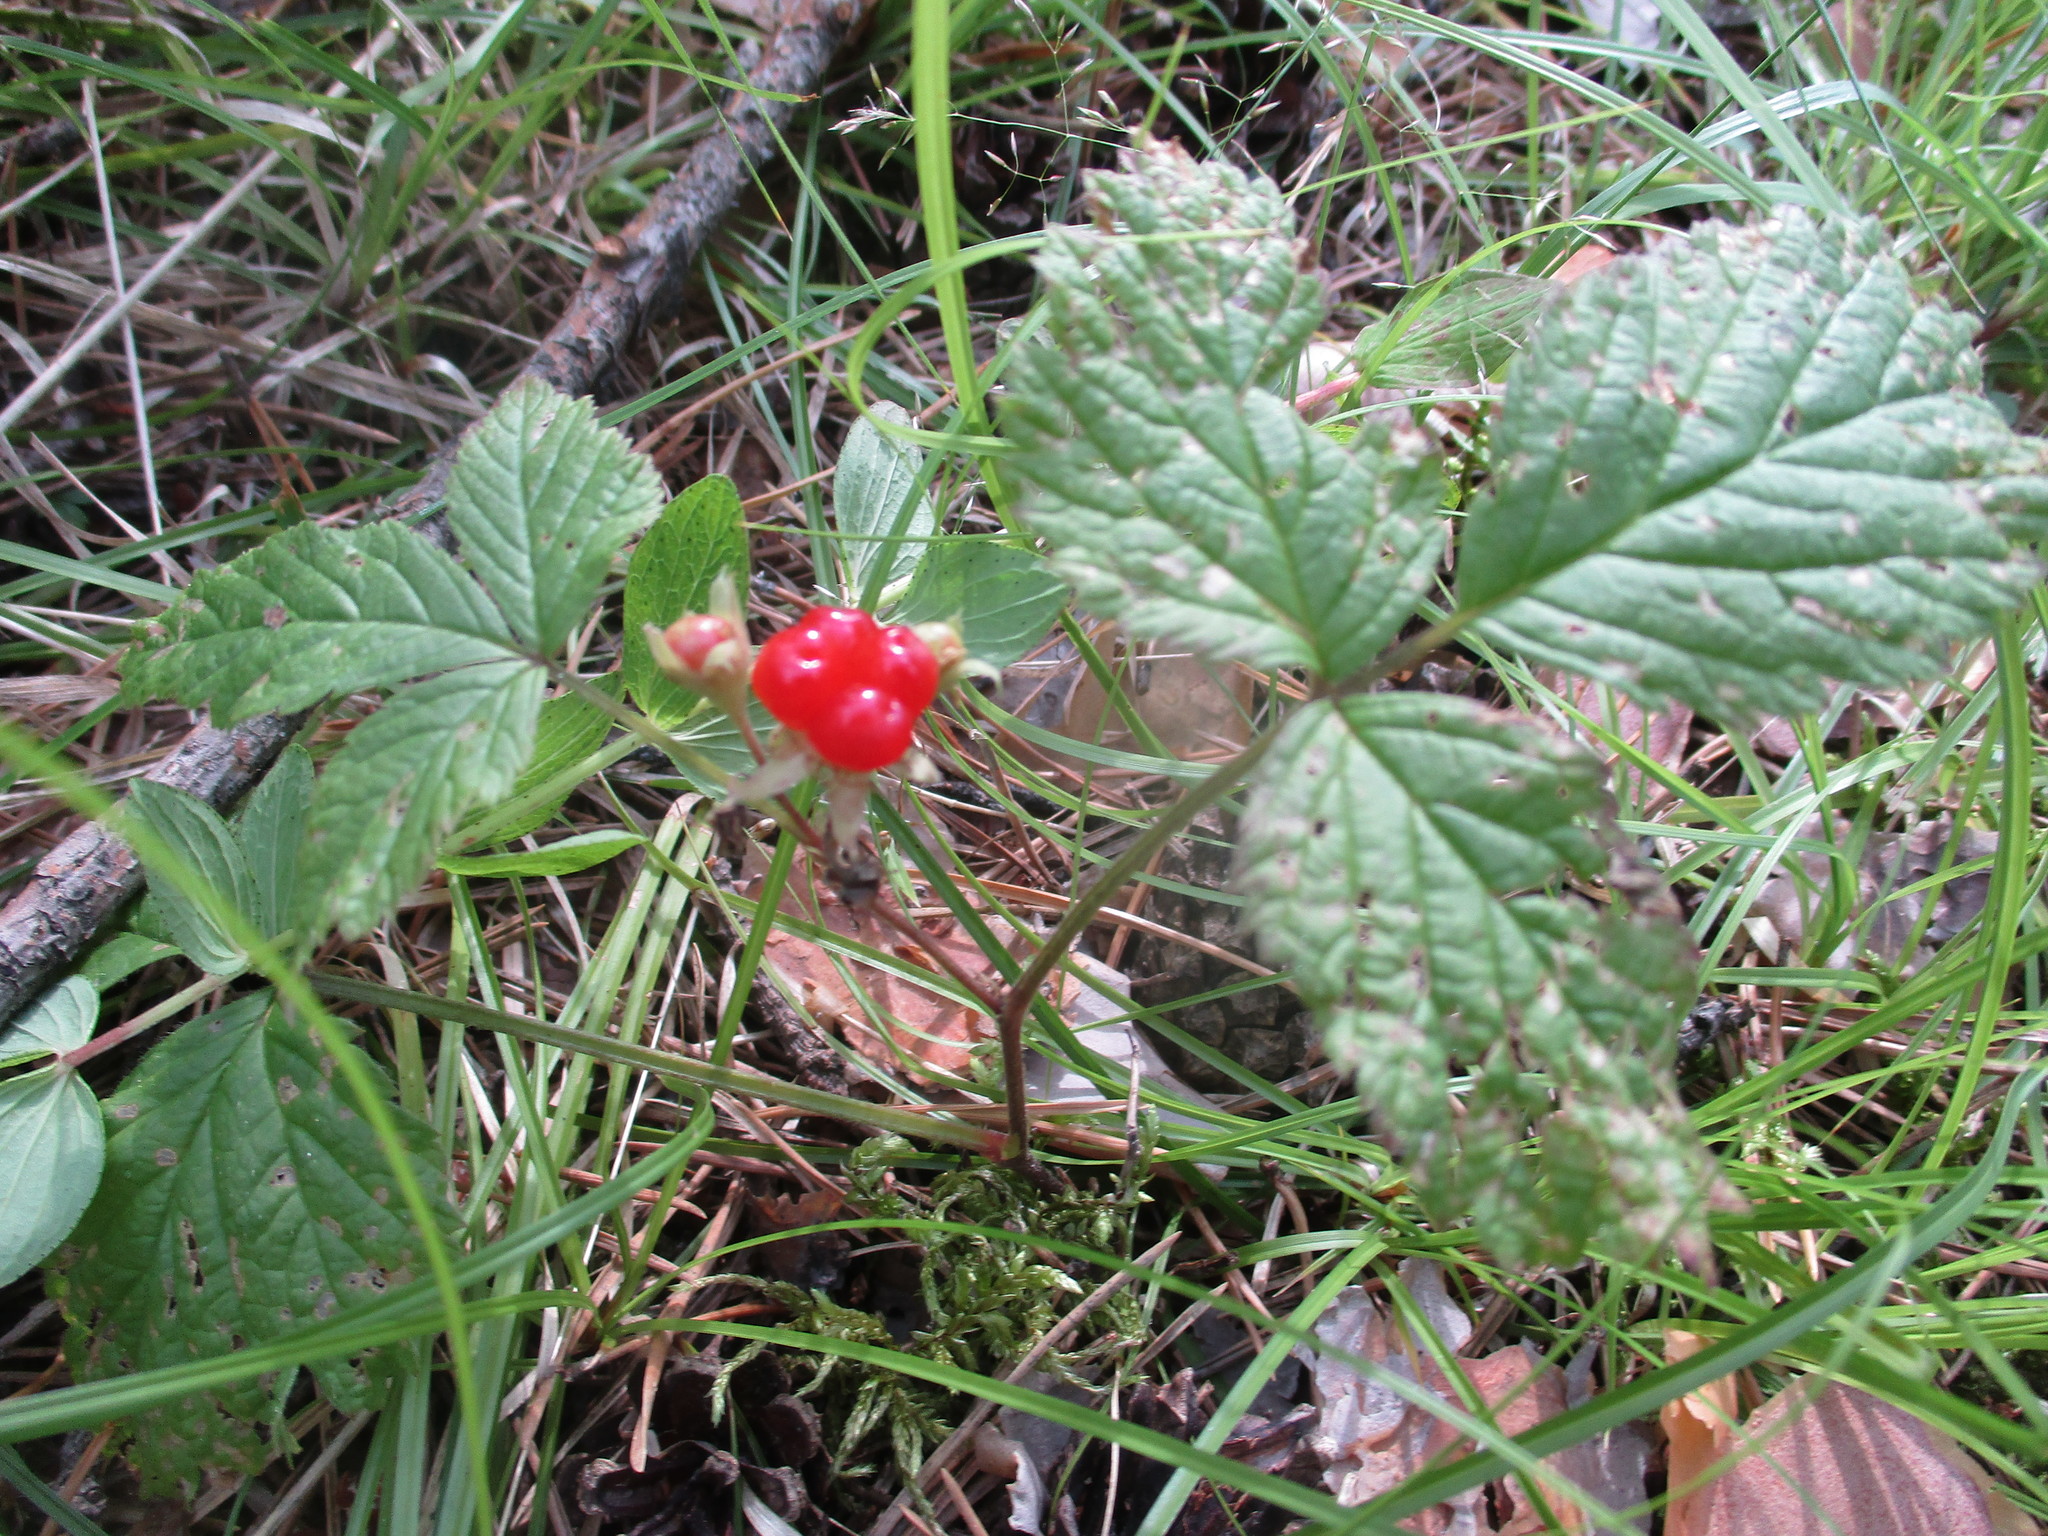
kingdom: Plantae
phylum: Tracheophyta
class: Magnoliopsida
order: Rosales
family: Rosaceae
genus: Rubus
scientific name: Rubus saxatilis
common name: Stone bramble
